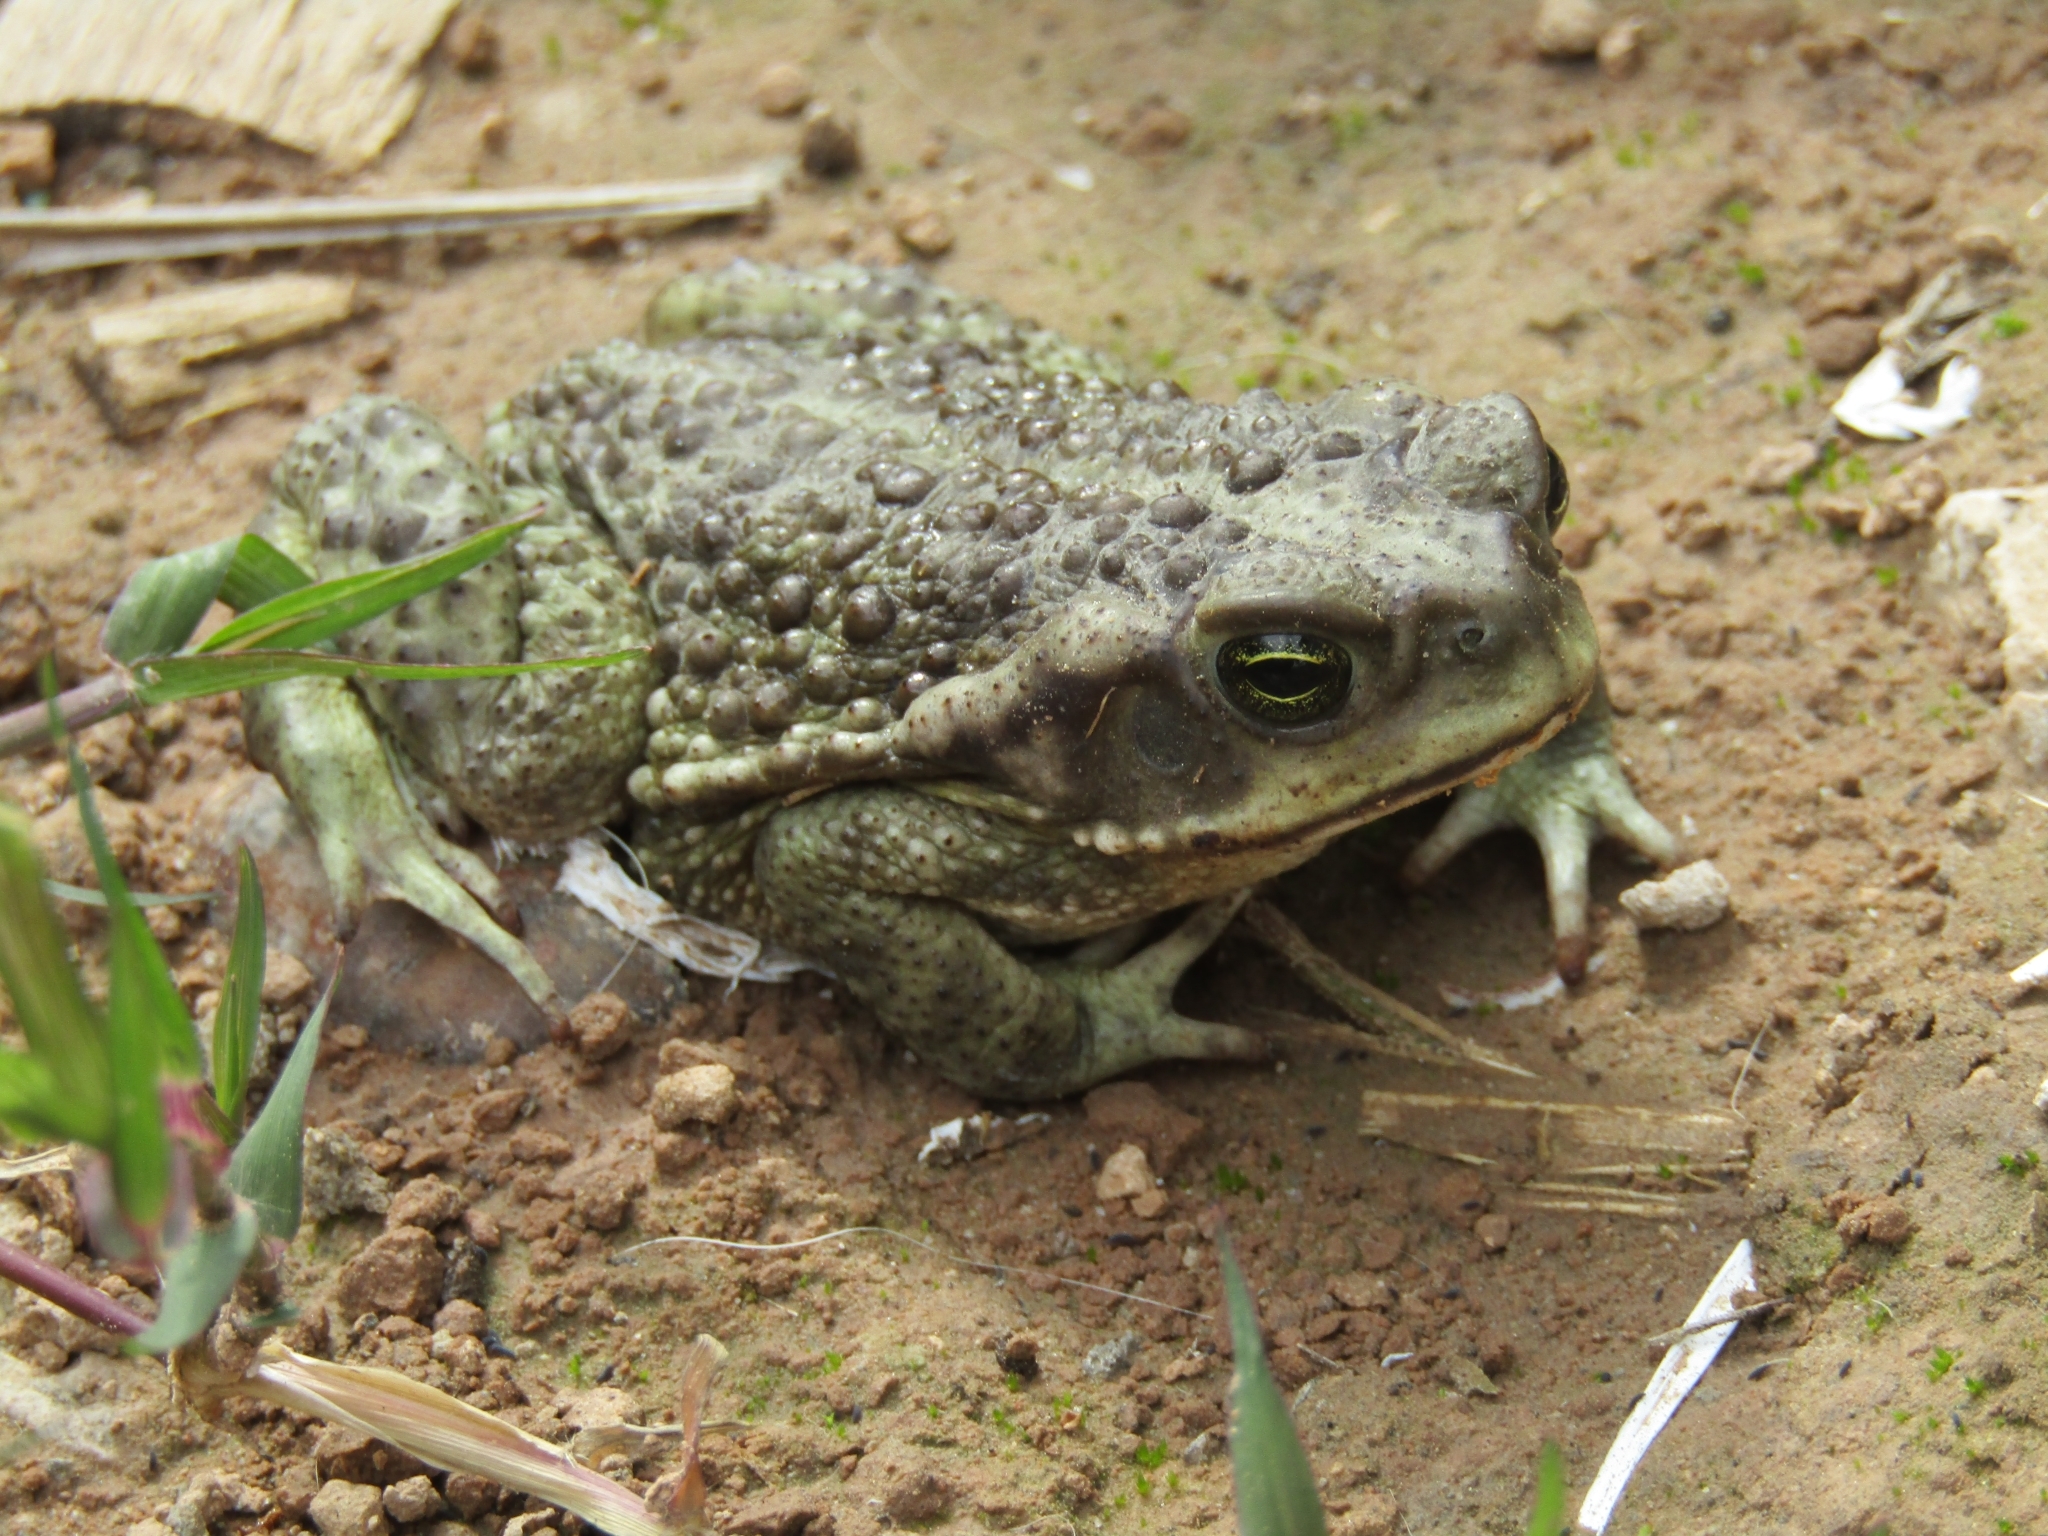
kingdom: Animalia
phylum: Chordata
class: Amphibia
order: Anura
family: Bufonidae
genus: Rhinella
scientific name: Rhinella arenarum
